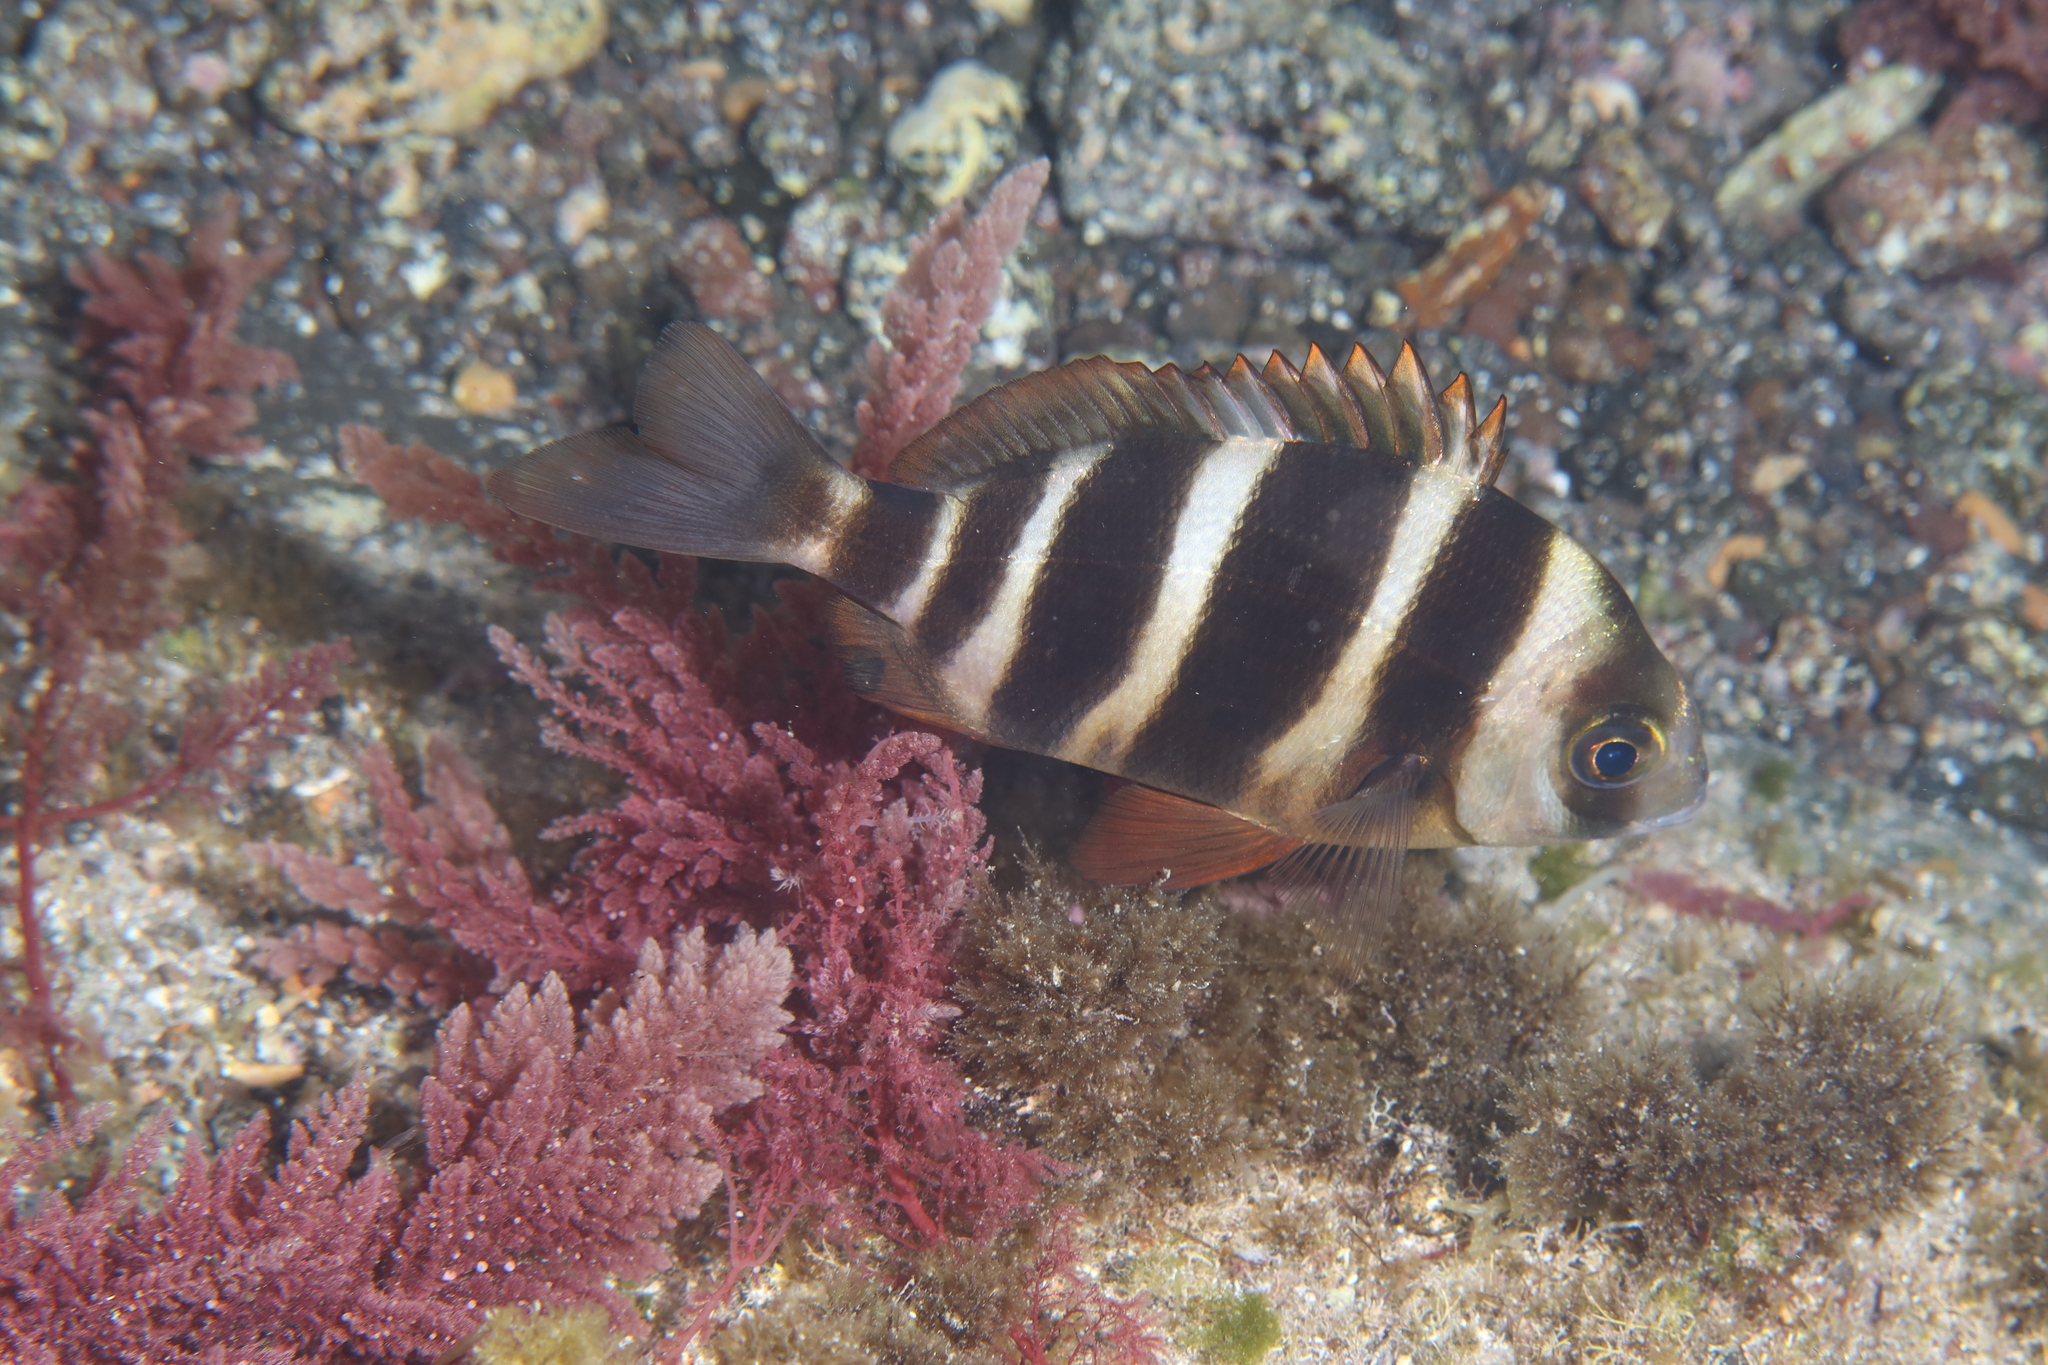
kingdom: Animalia
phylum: Chordata
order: Perciformes
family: Sparidae
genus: Diplodus
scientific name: Diplodus cervinus
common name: Oman porgy
